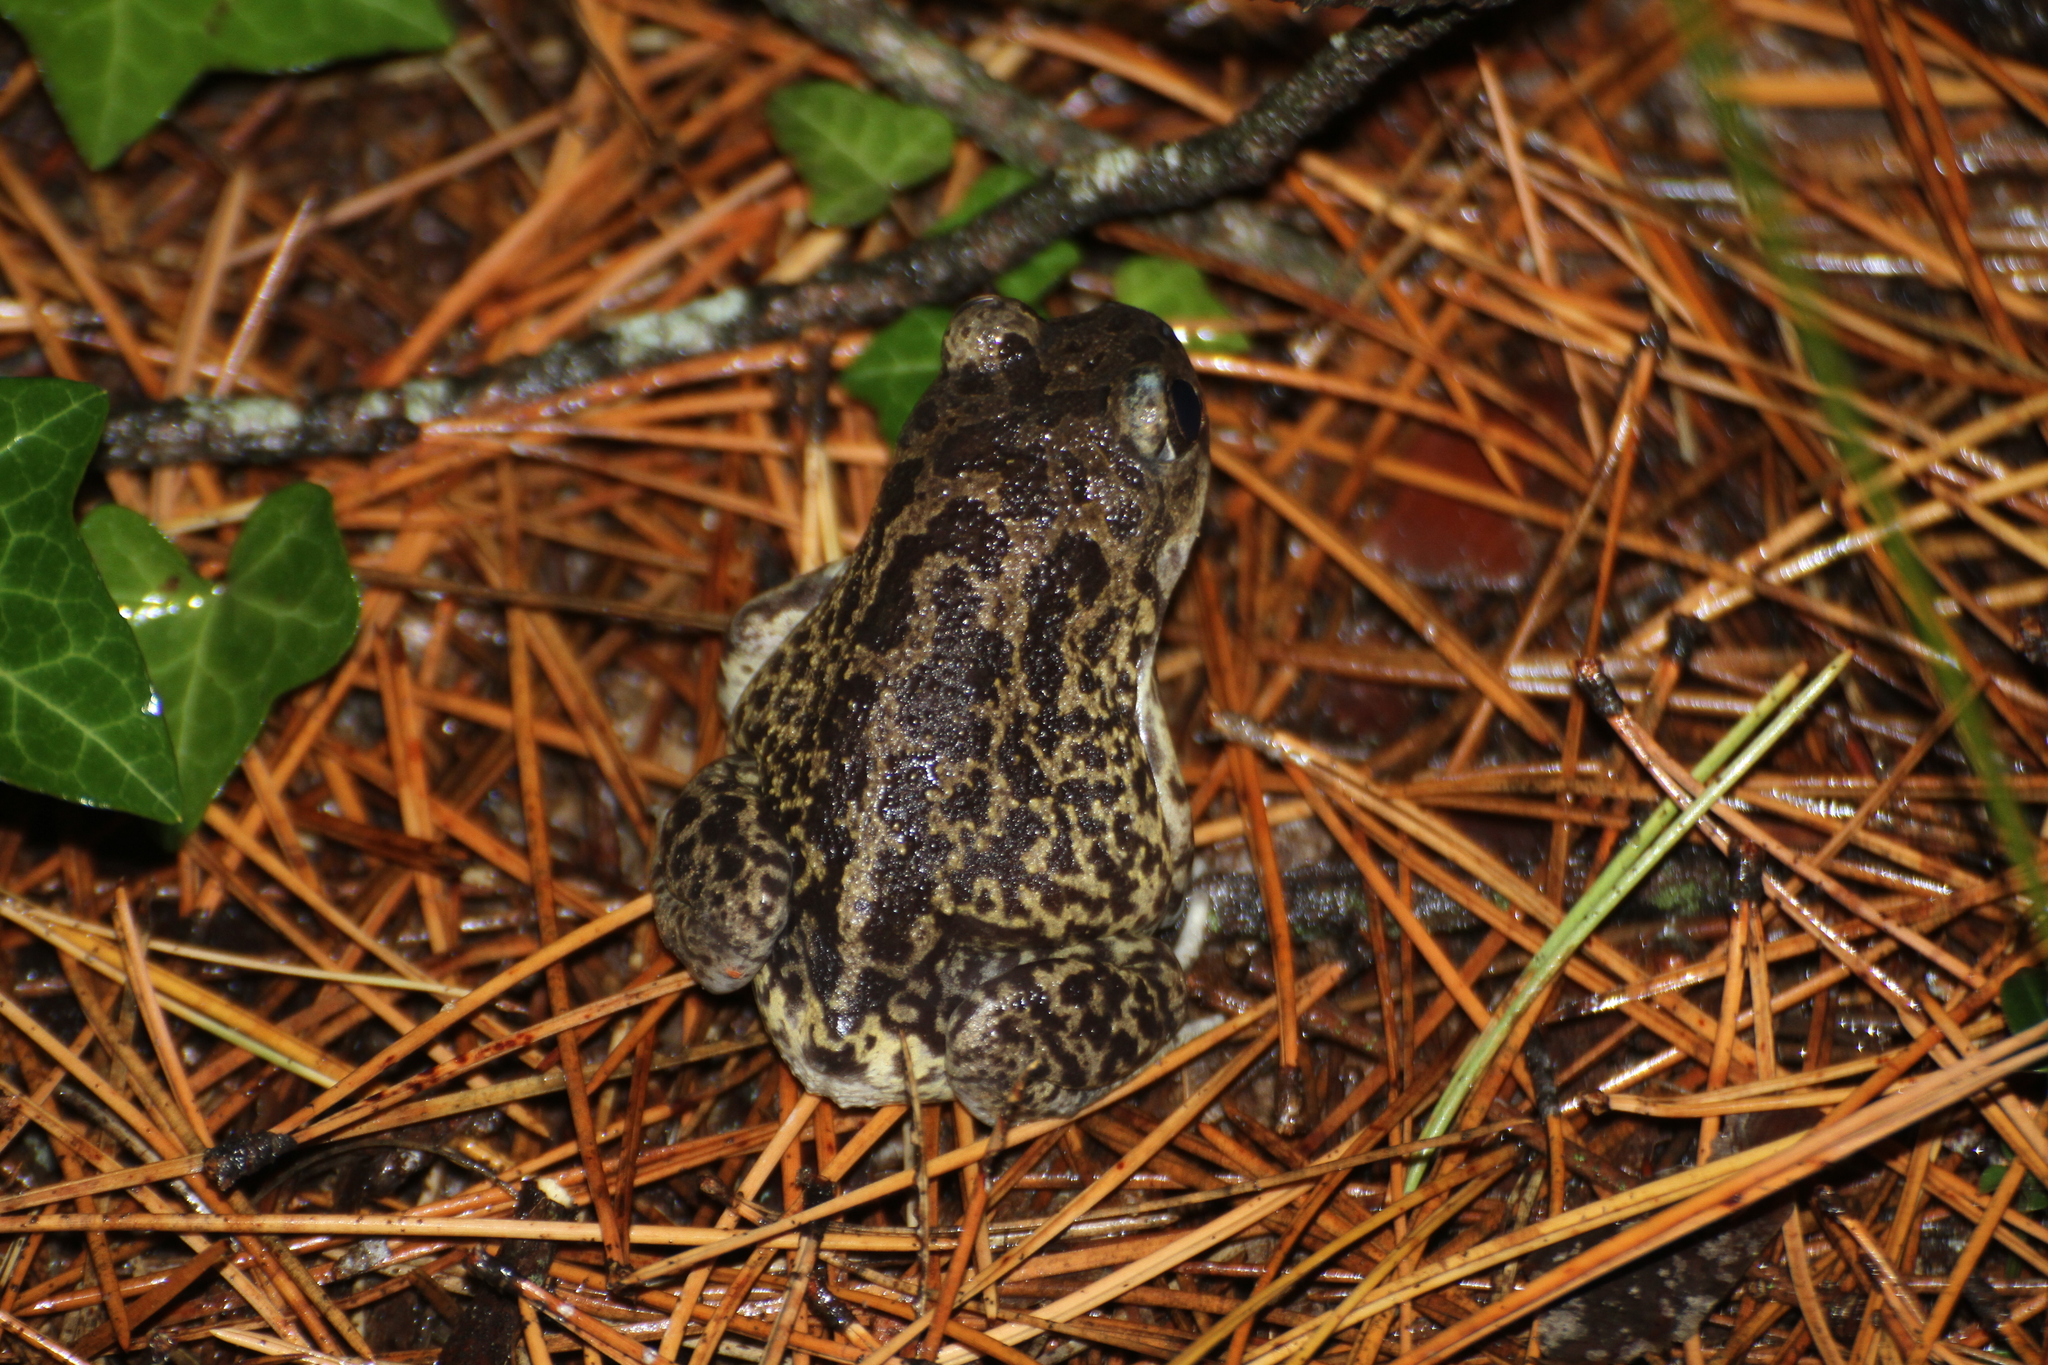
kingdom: Animalia
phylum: Chordata
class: Amphibia
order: Anura
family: Pelobatidae
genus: Pelobates
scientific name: Pelobates cultripes
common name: Western spadefoot
